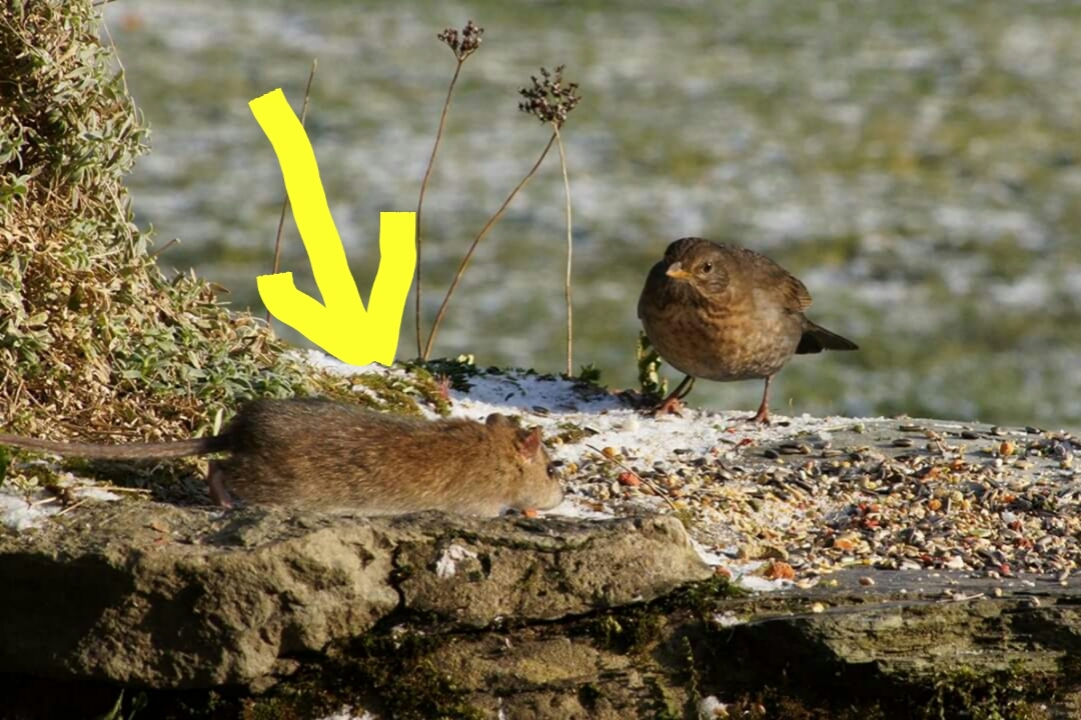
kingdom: Animalia
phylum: Chordata
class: Mammalia
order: Rodentia
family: Muridae
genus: Rattus
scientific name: Rattus norvegicus
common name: Brown rat
